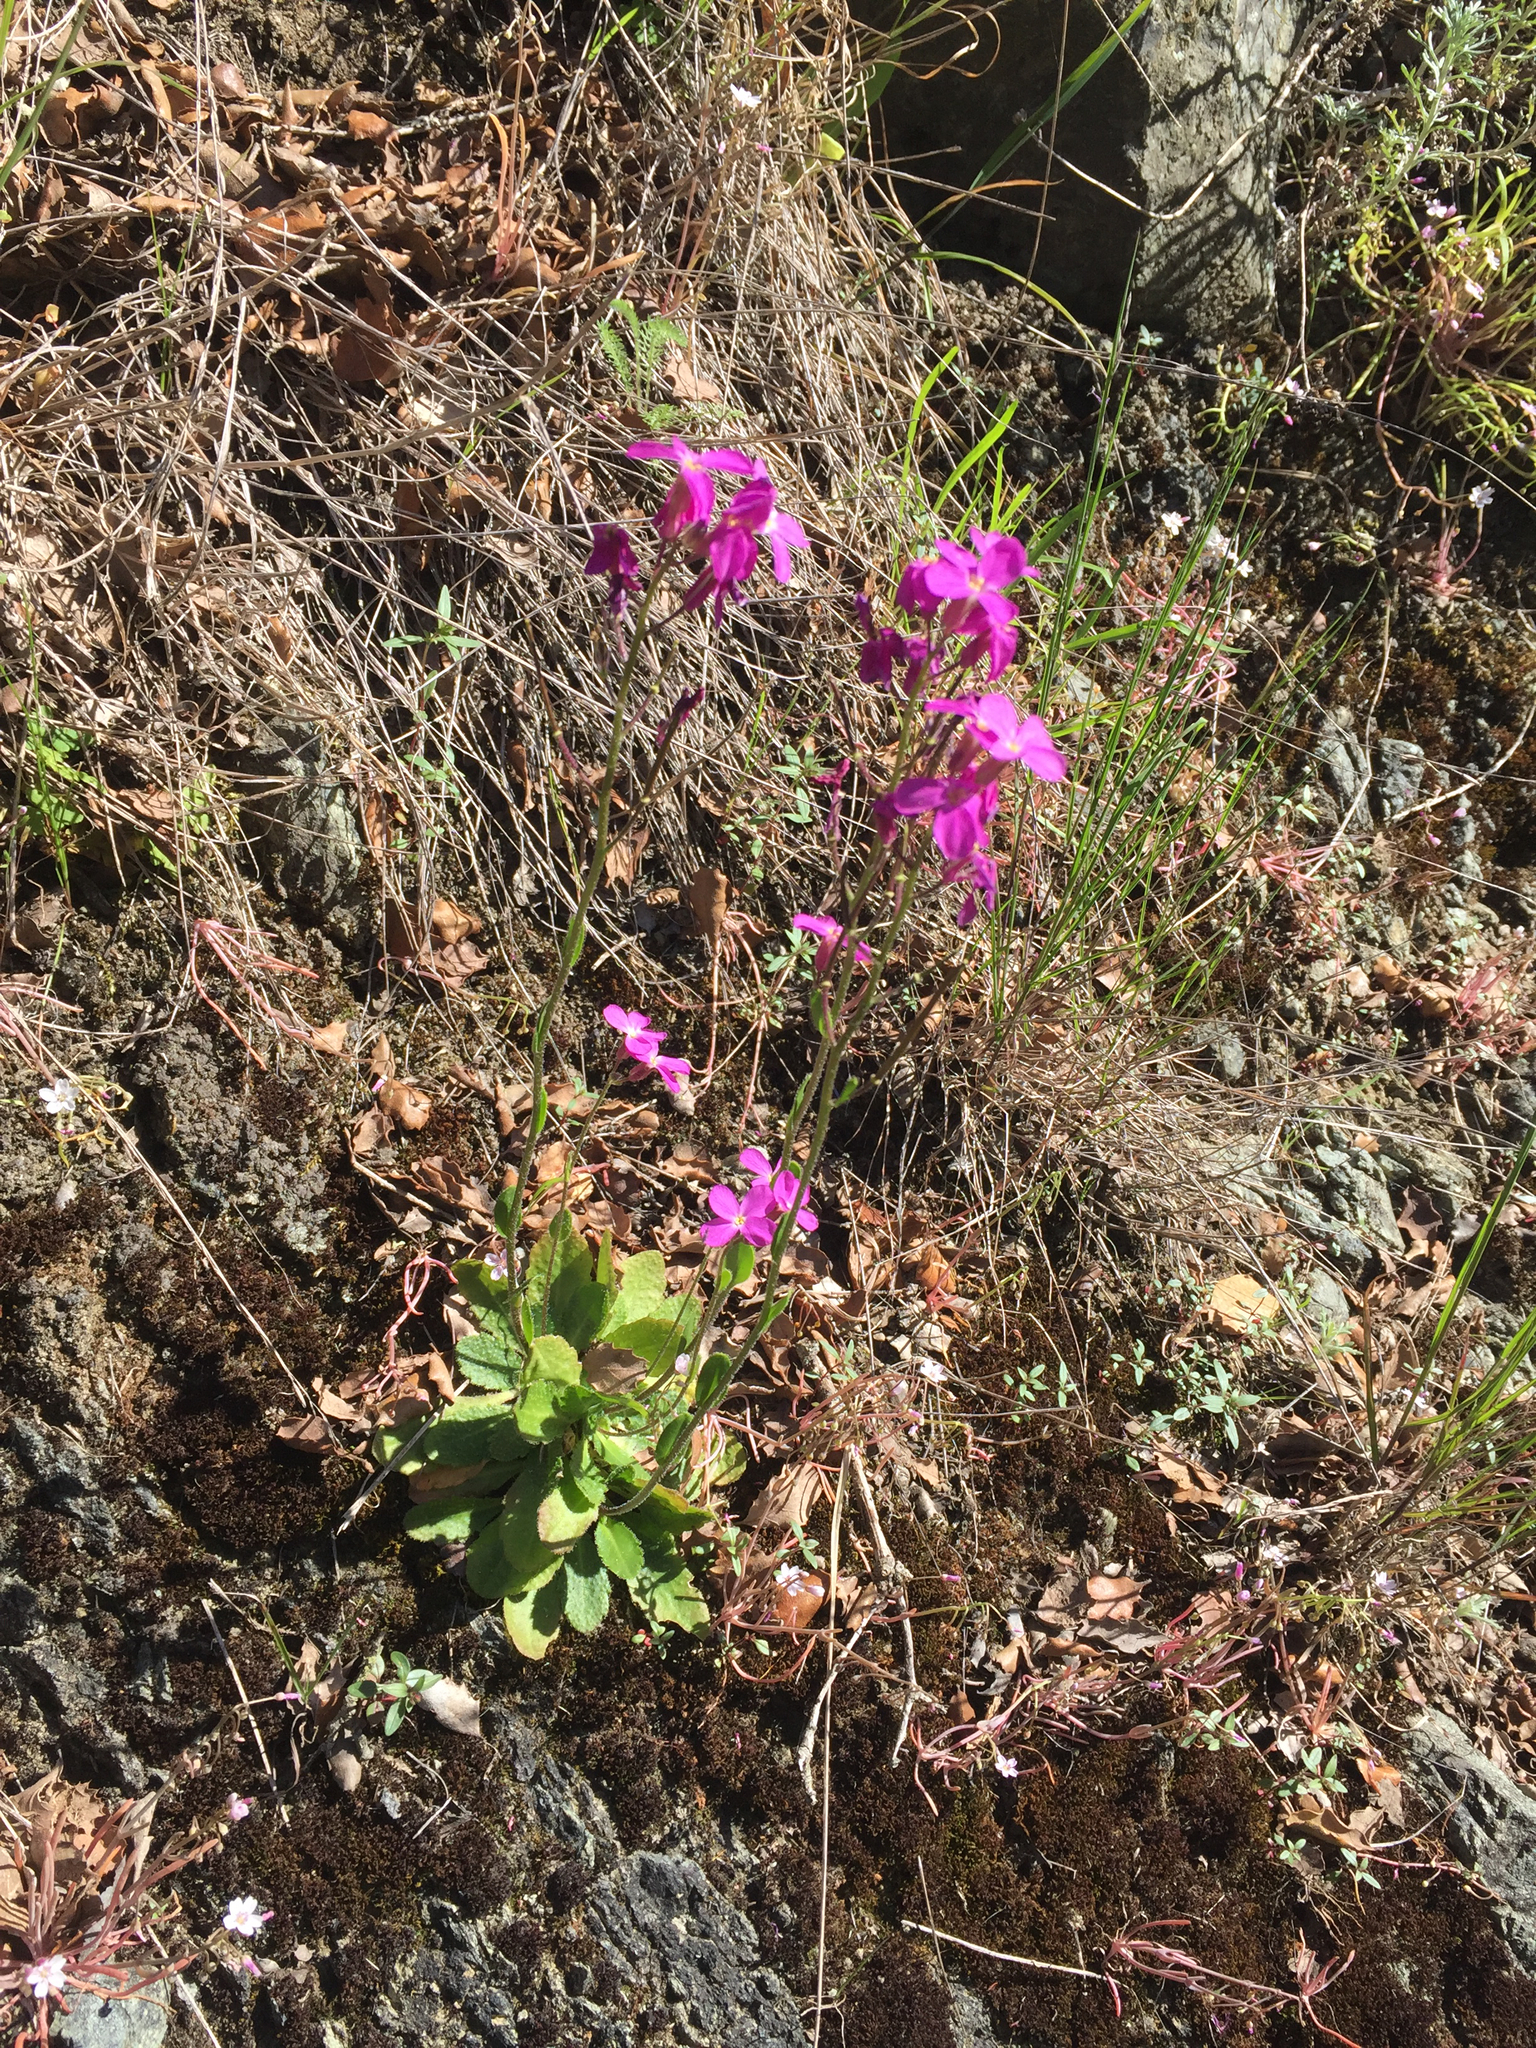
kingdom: Plantae
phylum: Tracheophyta
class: Magnoliopsida
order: Brassicales
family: Brassicaceae
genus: Arabis
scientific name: Arabis blepharophylla
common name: Rose rockcress
